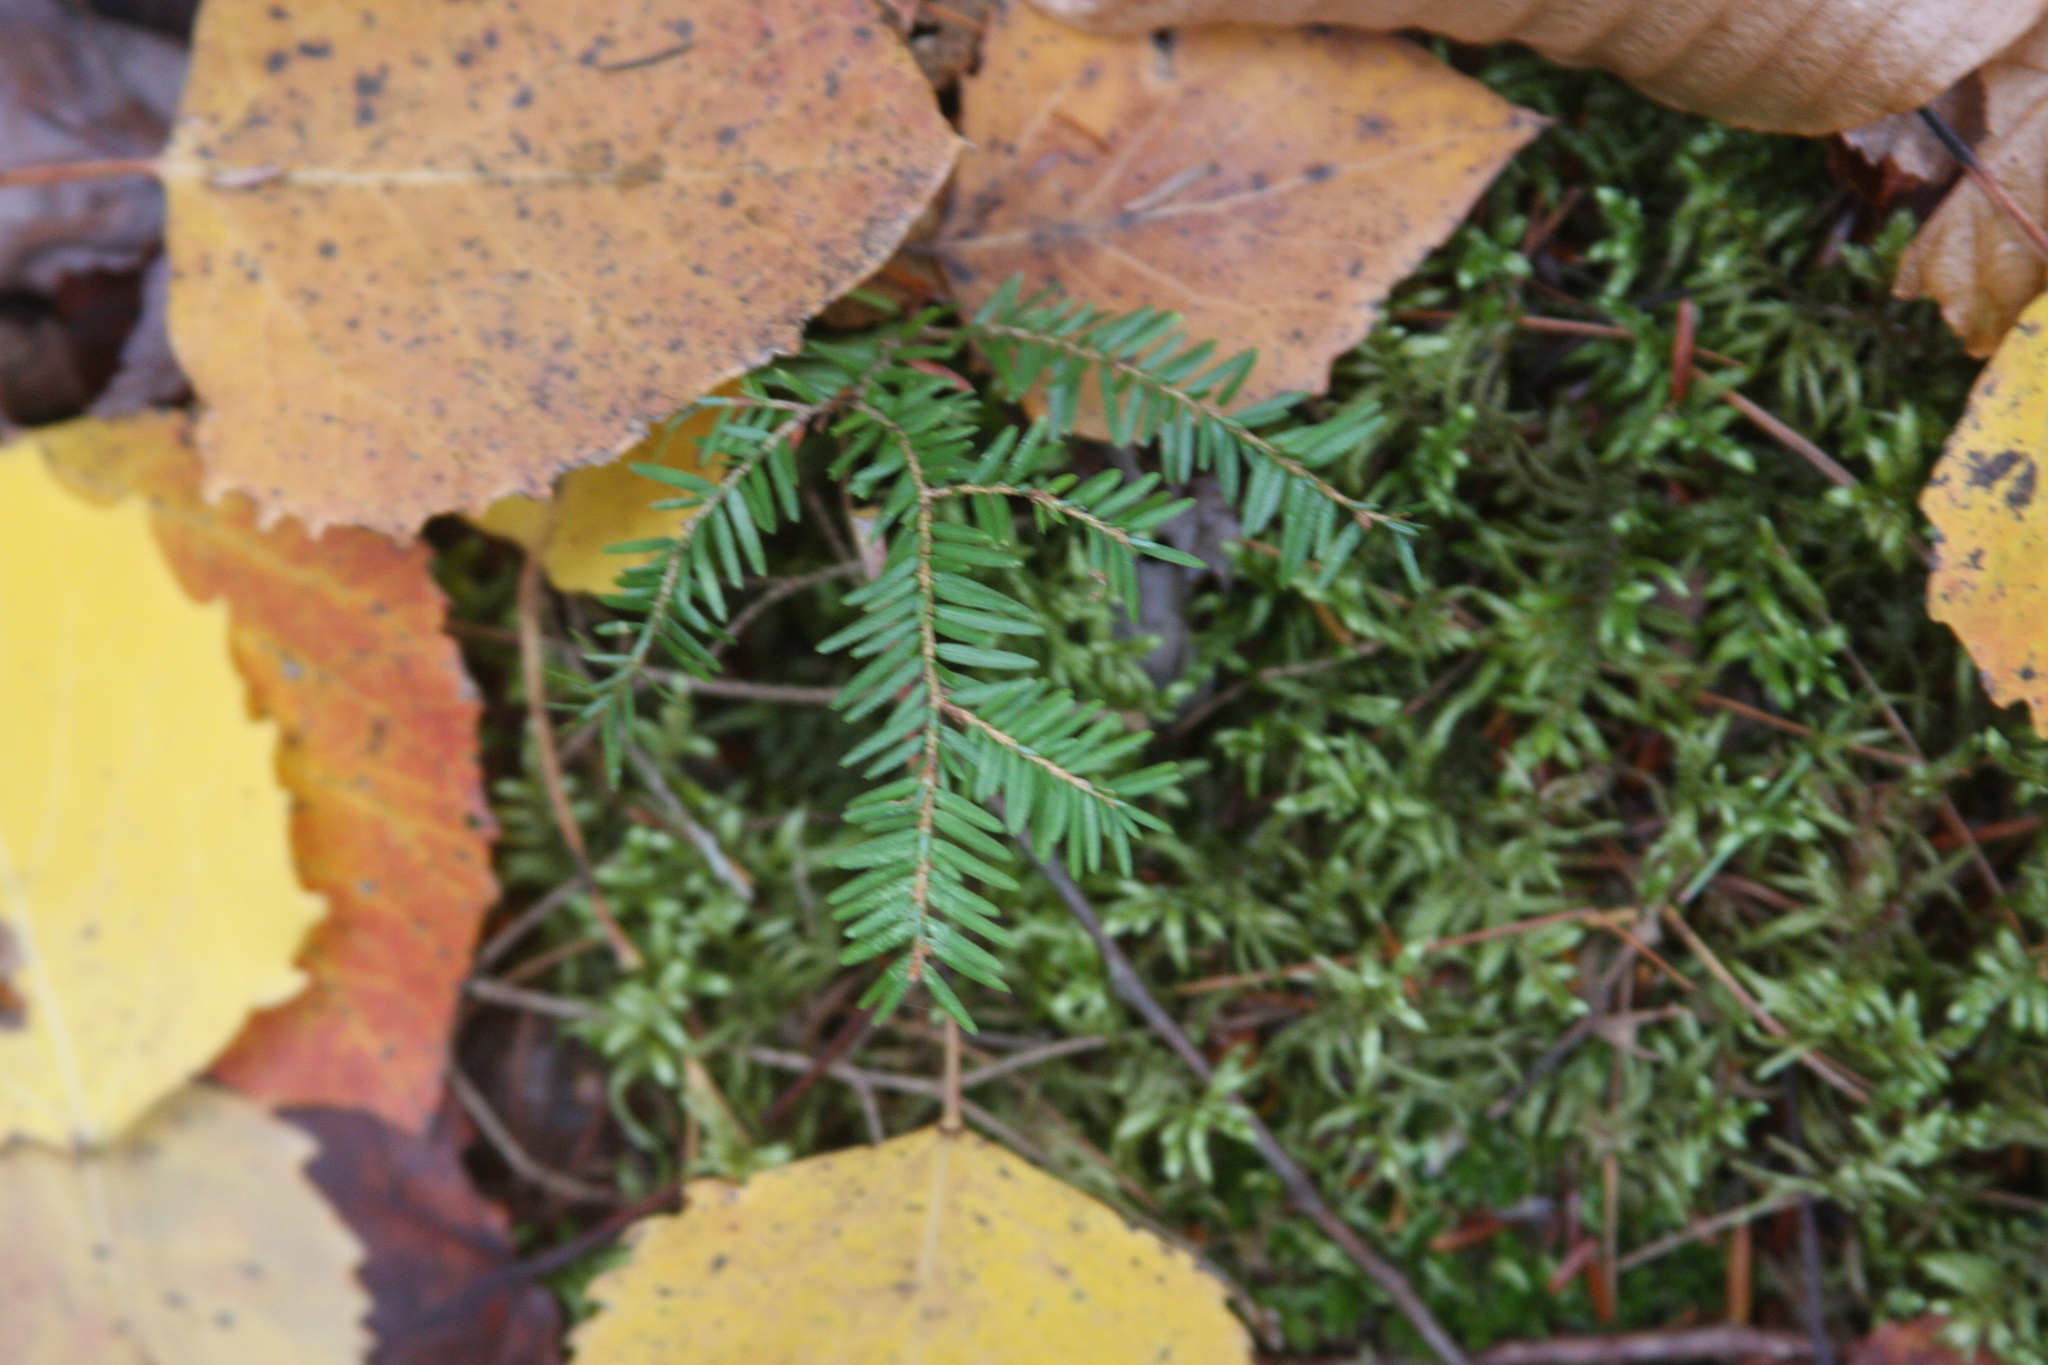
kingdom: Plantae
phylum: Tracheophyta
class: Pinopsida
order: Pinales
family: Pinaceae
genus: Tsuga
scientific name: Tsuga canadensis
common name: Eastern hemlock
